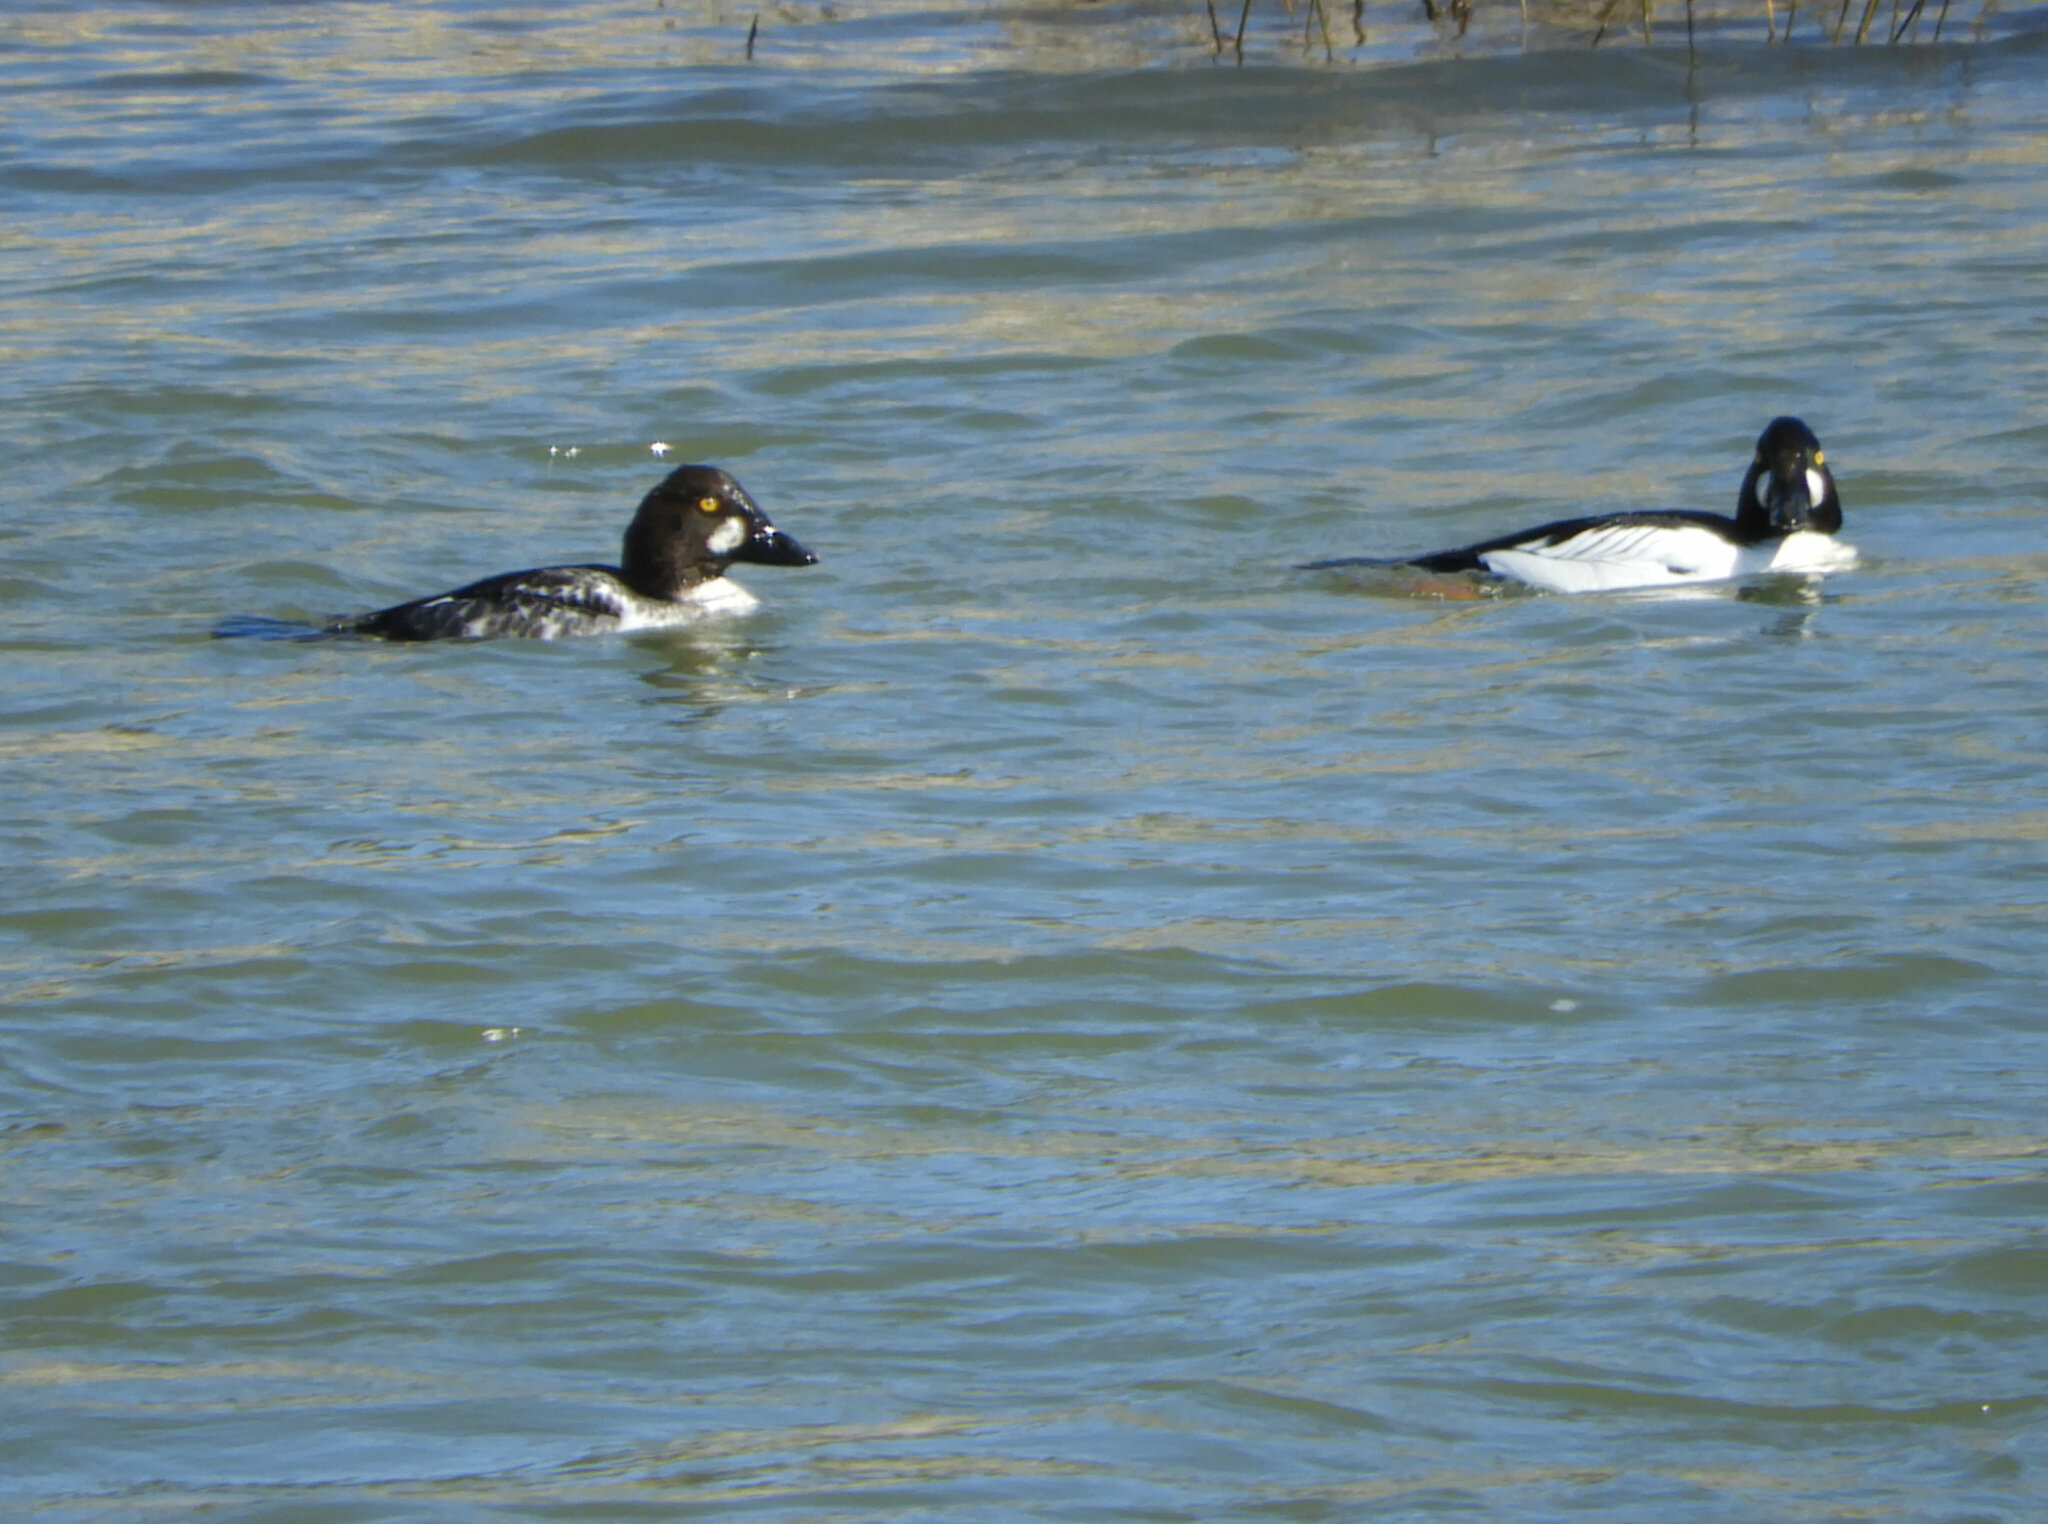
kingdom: Animalia
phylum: Chordata
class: Aves
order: Anseriformes
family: Anatidae
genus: Bucephala
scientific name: Bucephala clangula
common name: Common goldeneye
